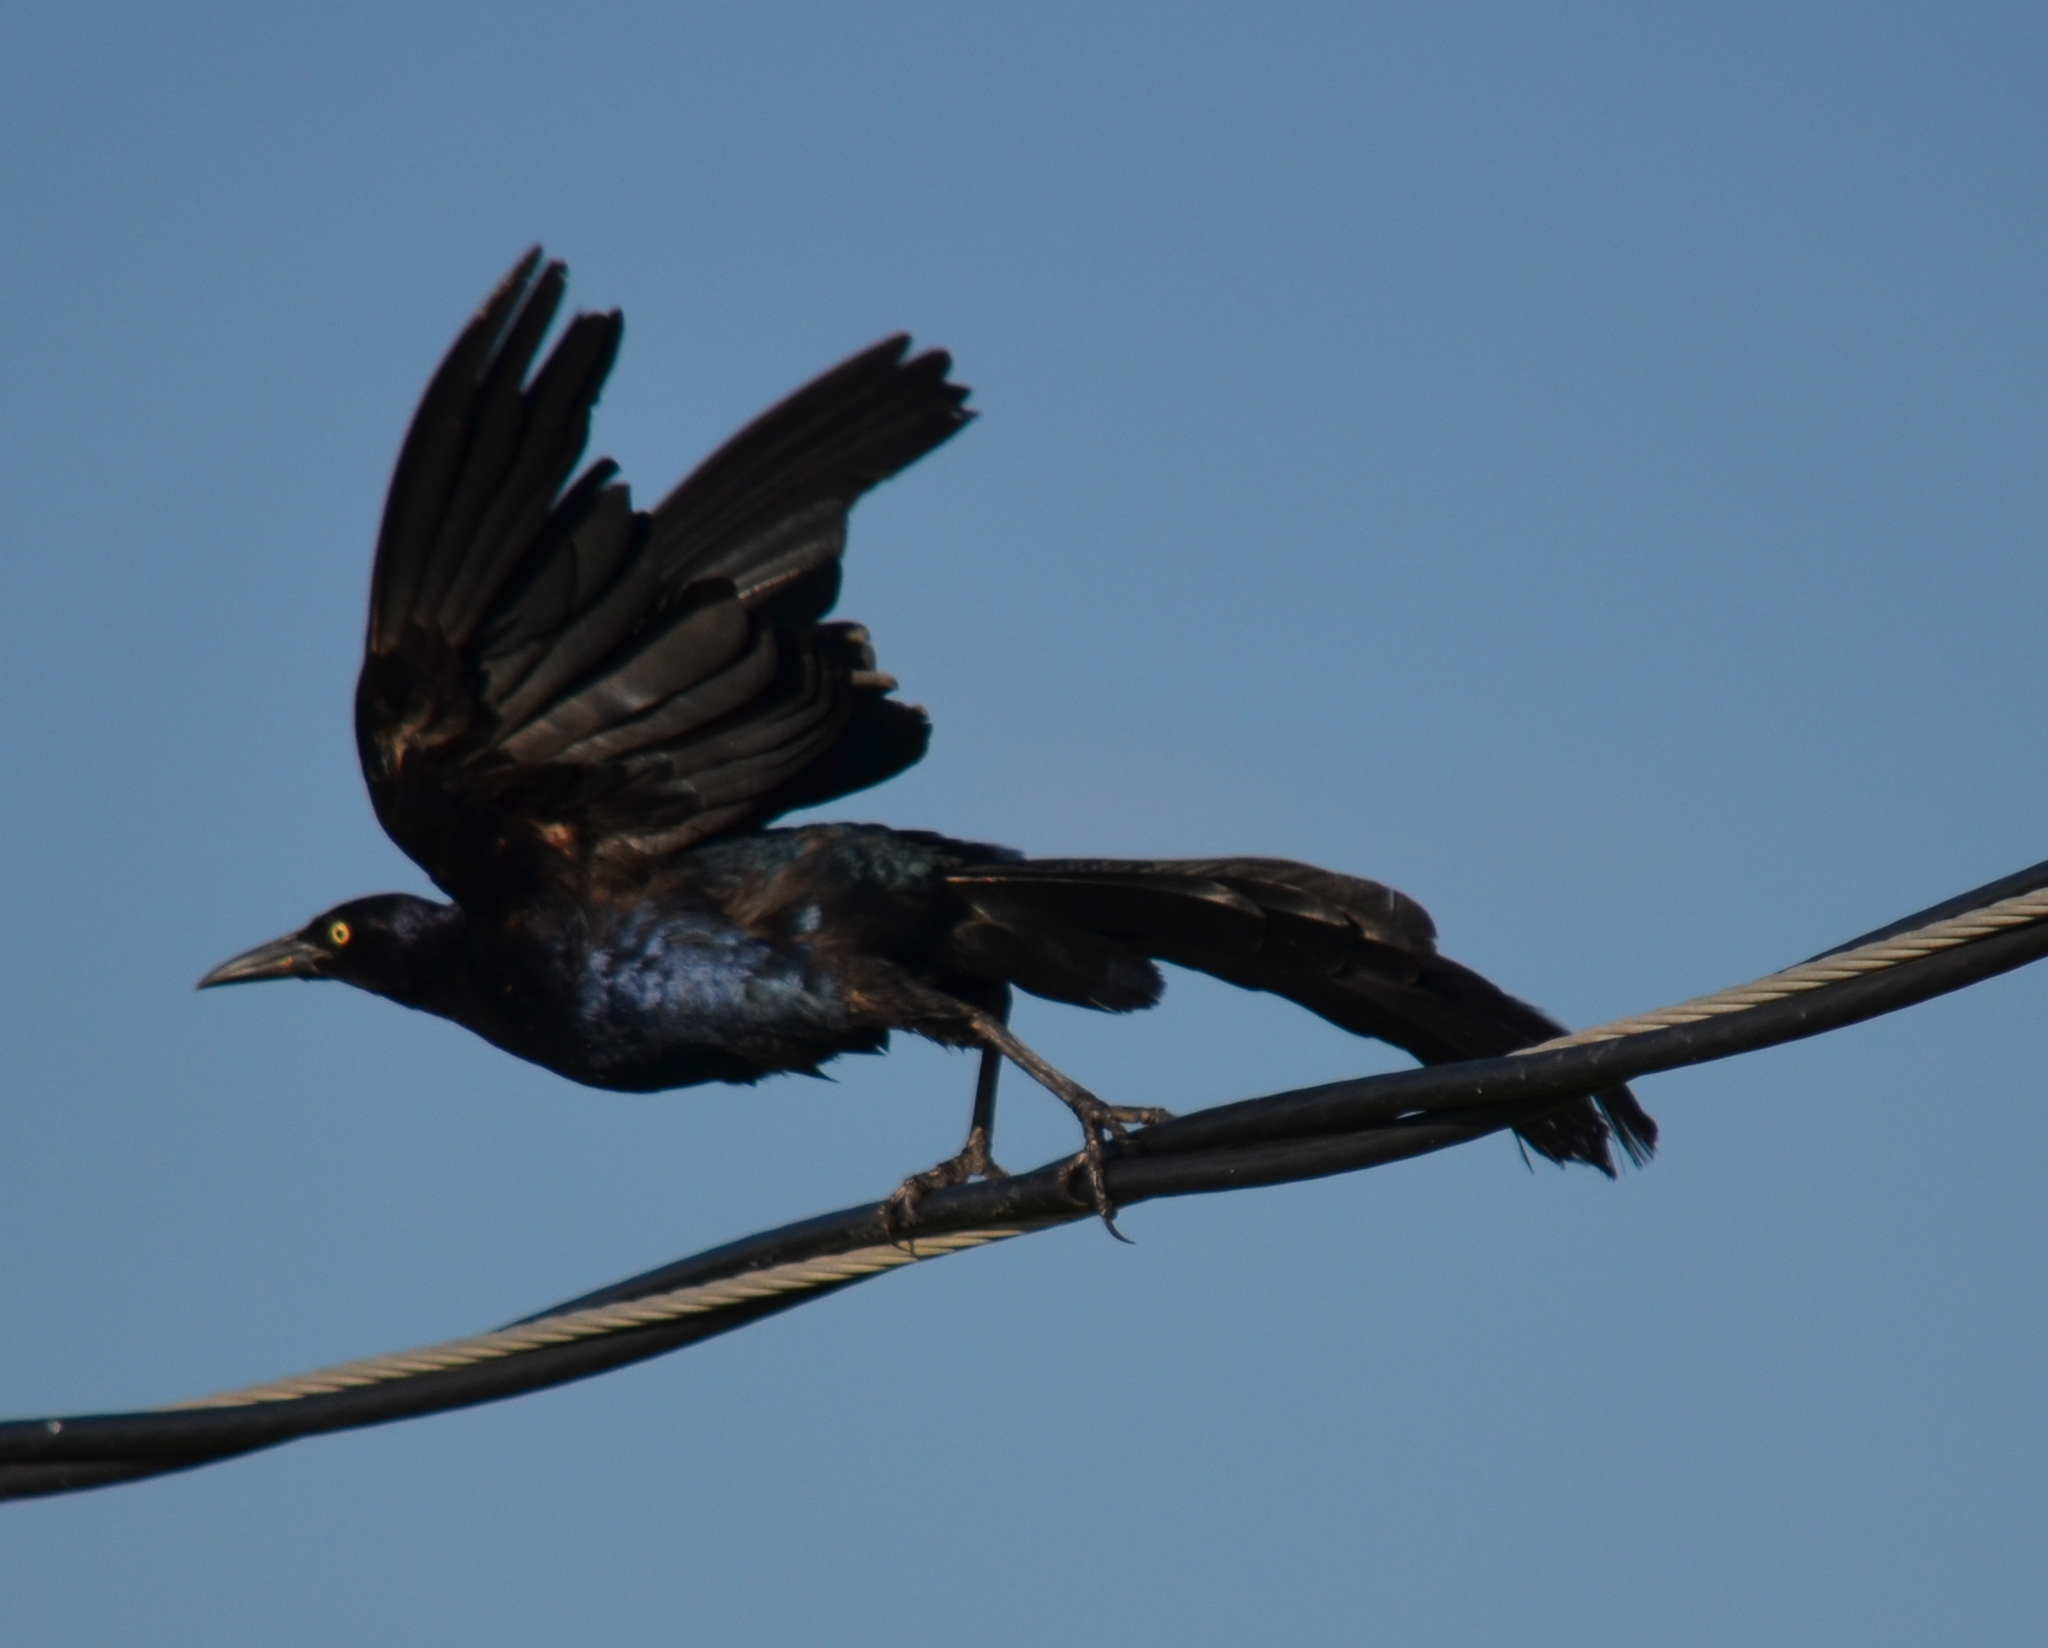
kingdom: Animalia
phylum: Chordata
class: Aves
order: Passeriformes
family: Icteridae
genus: Quiscalus
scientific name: Quiscalus mexicanus
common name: Great-tailed grackle
